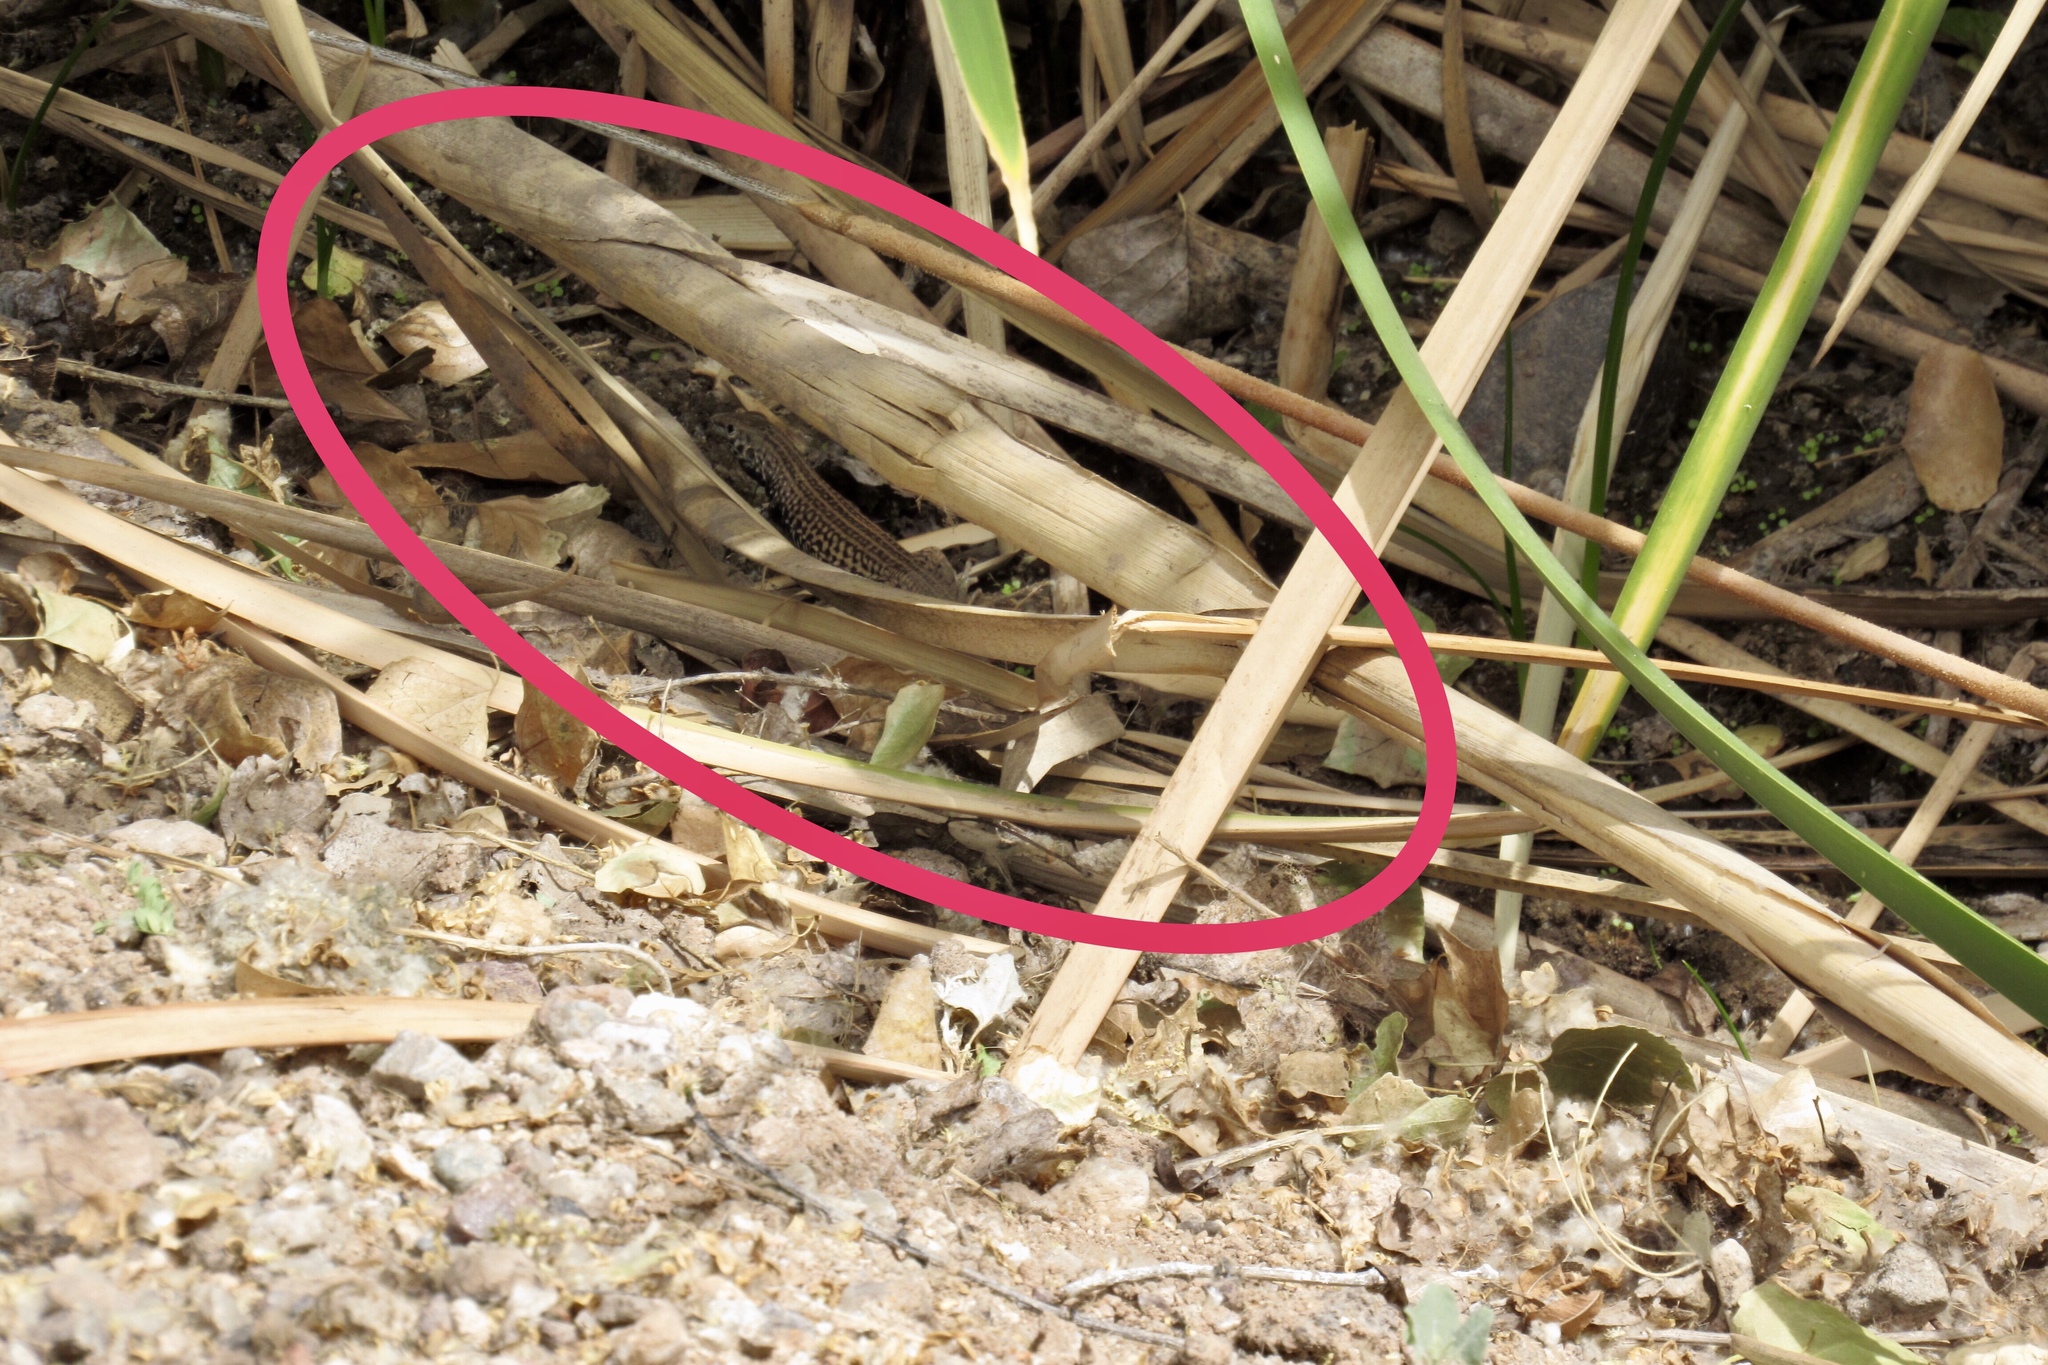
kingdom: Animalia
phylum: Chordata
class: Squamata
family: Teiidae
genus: Aspidoscelis
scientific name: Aspidoscelis tigris
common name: Tiger whiptail
